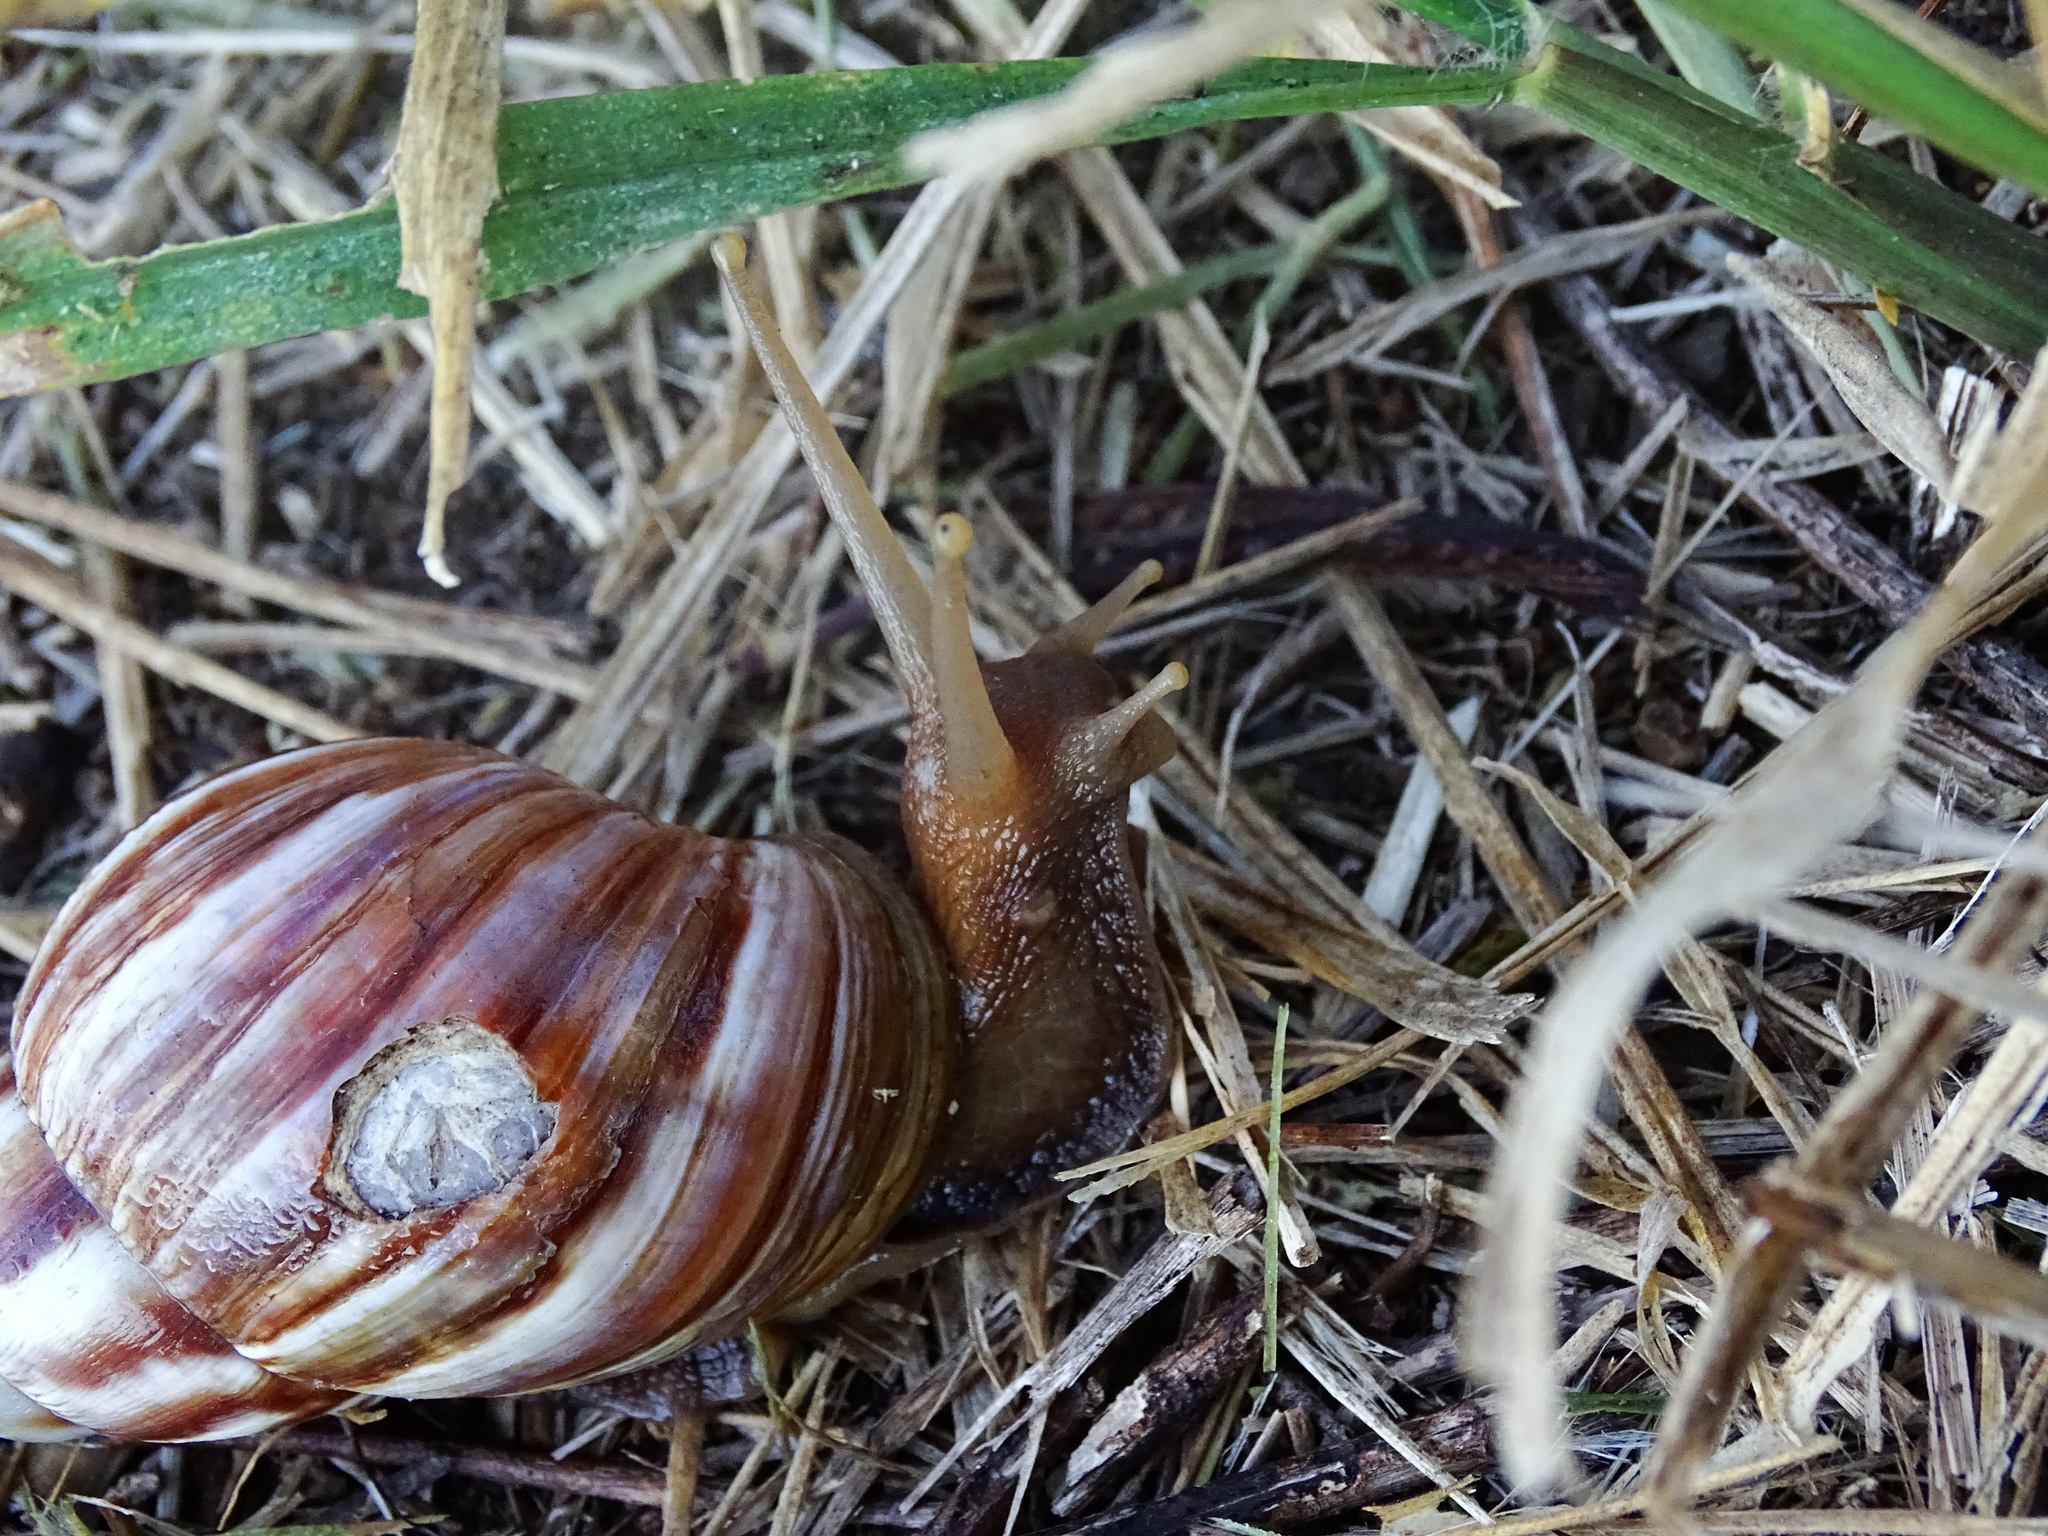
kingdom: Animalia
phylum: Mollusca
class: Gastropoda
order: Stylommatophora
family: Achatinidae
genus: Lissachatina
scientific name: Lissachatina fulica
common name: Giant african snail
